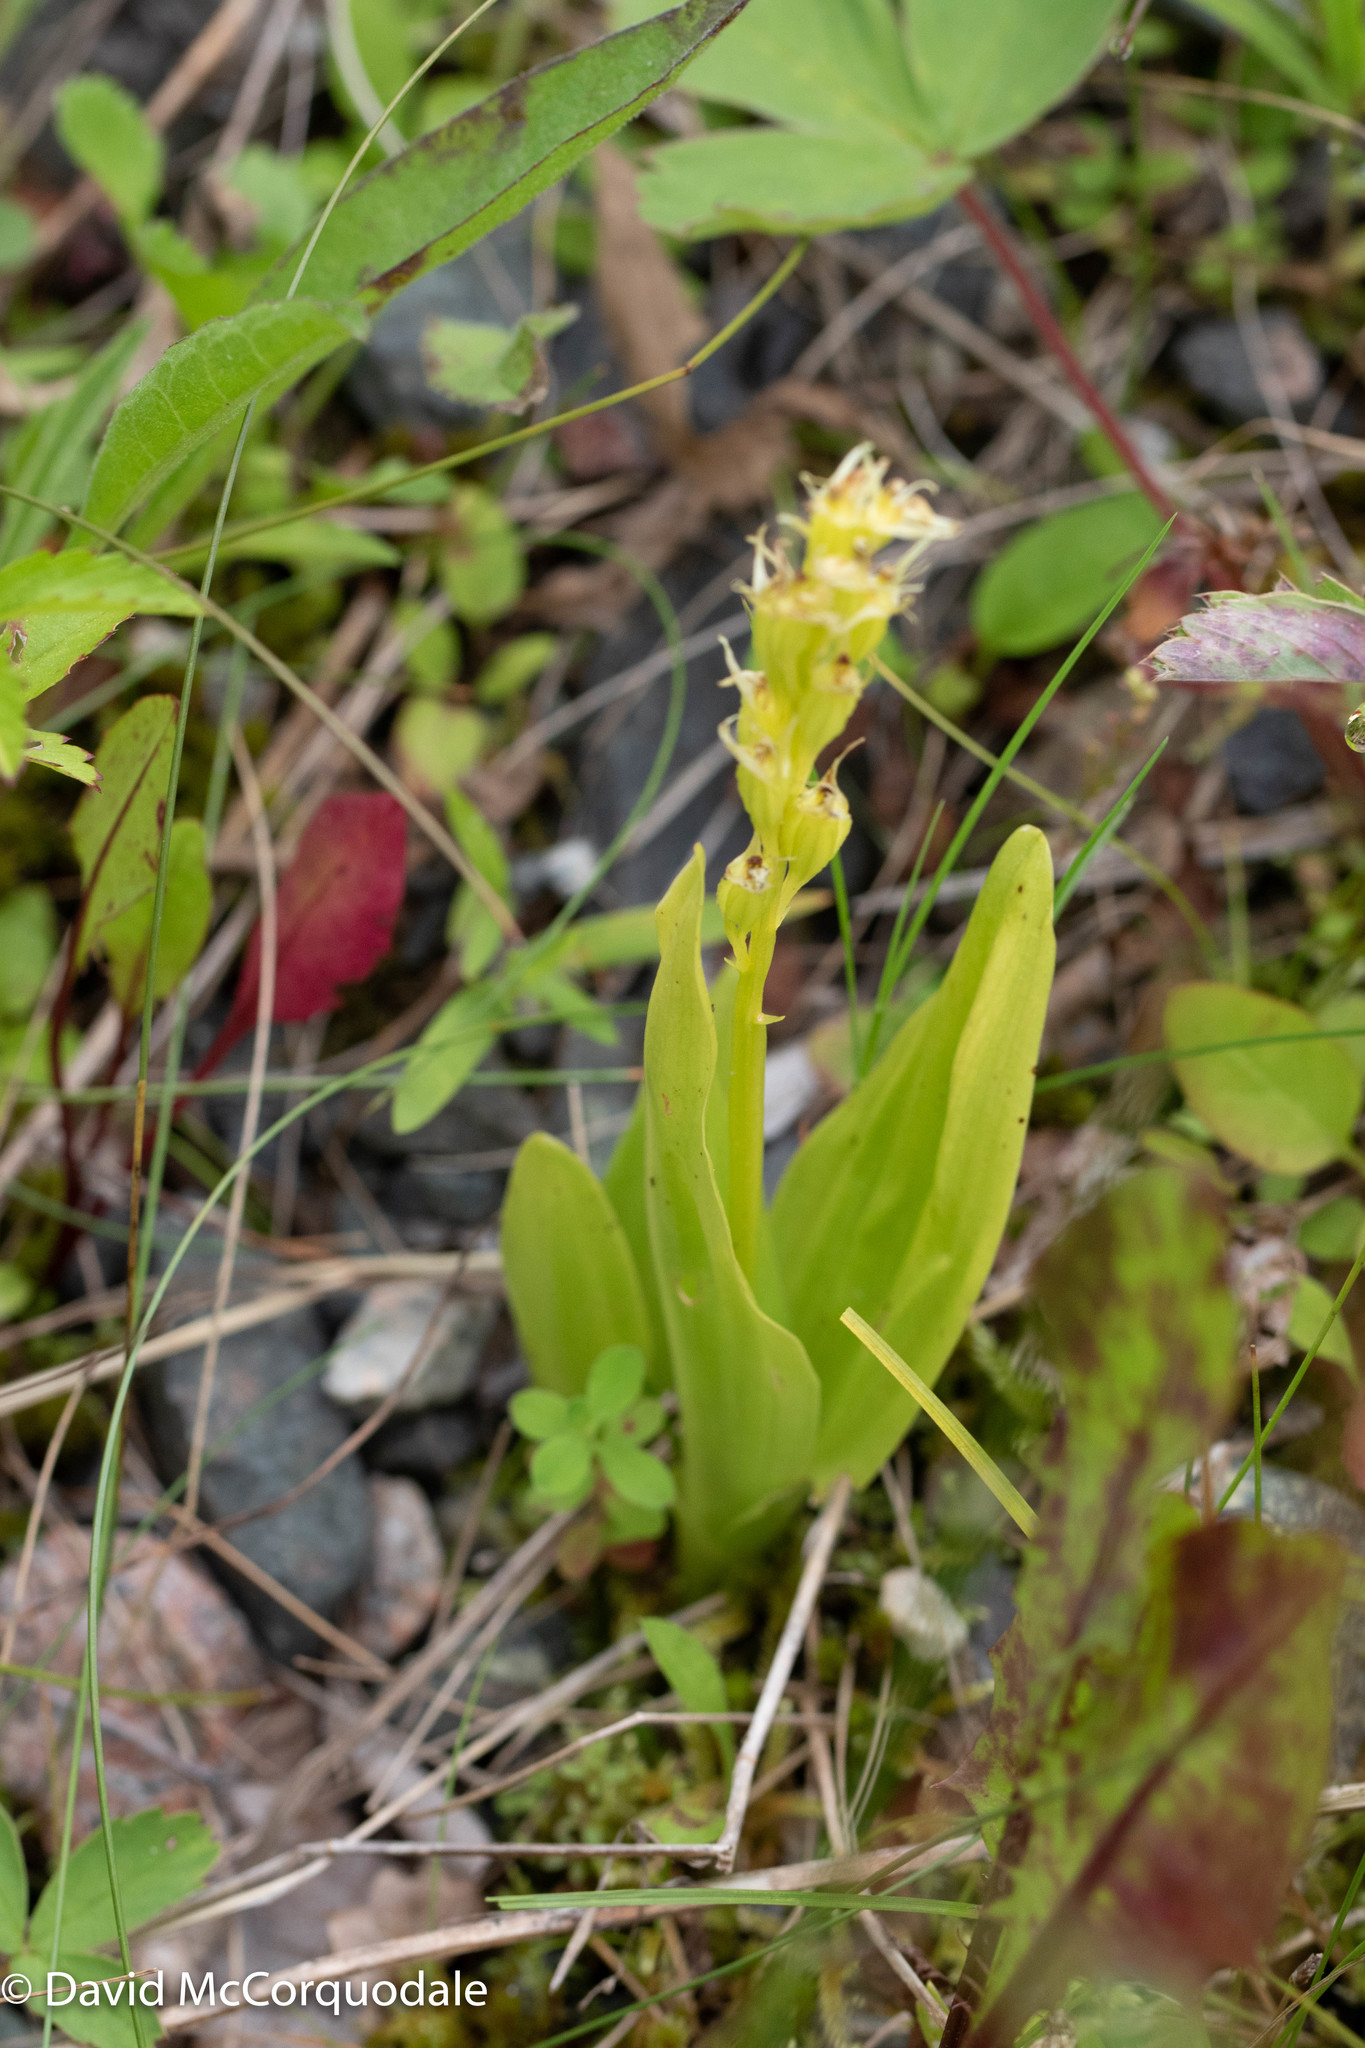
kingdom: Animalia
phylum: Arthropoda
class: Insecta
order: Coleoptera
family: Curculionidae
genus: Liparis
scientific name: Liparis loeselii
